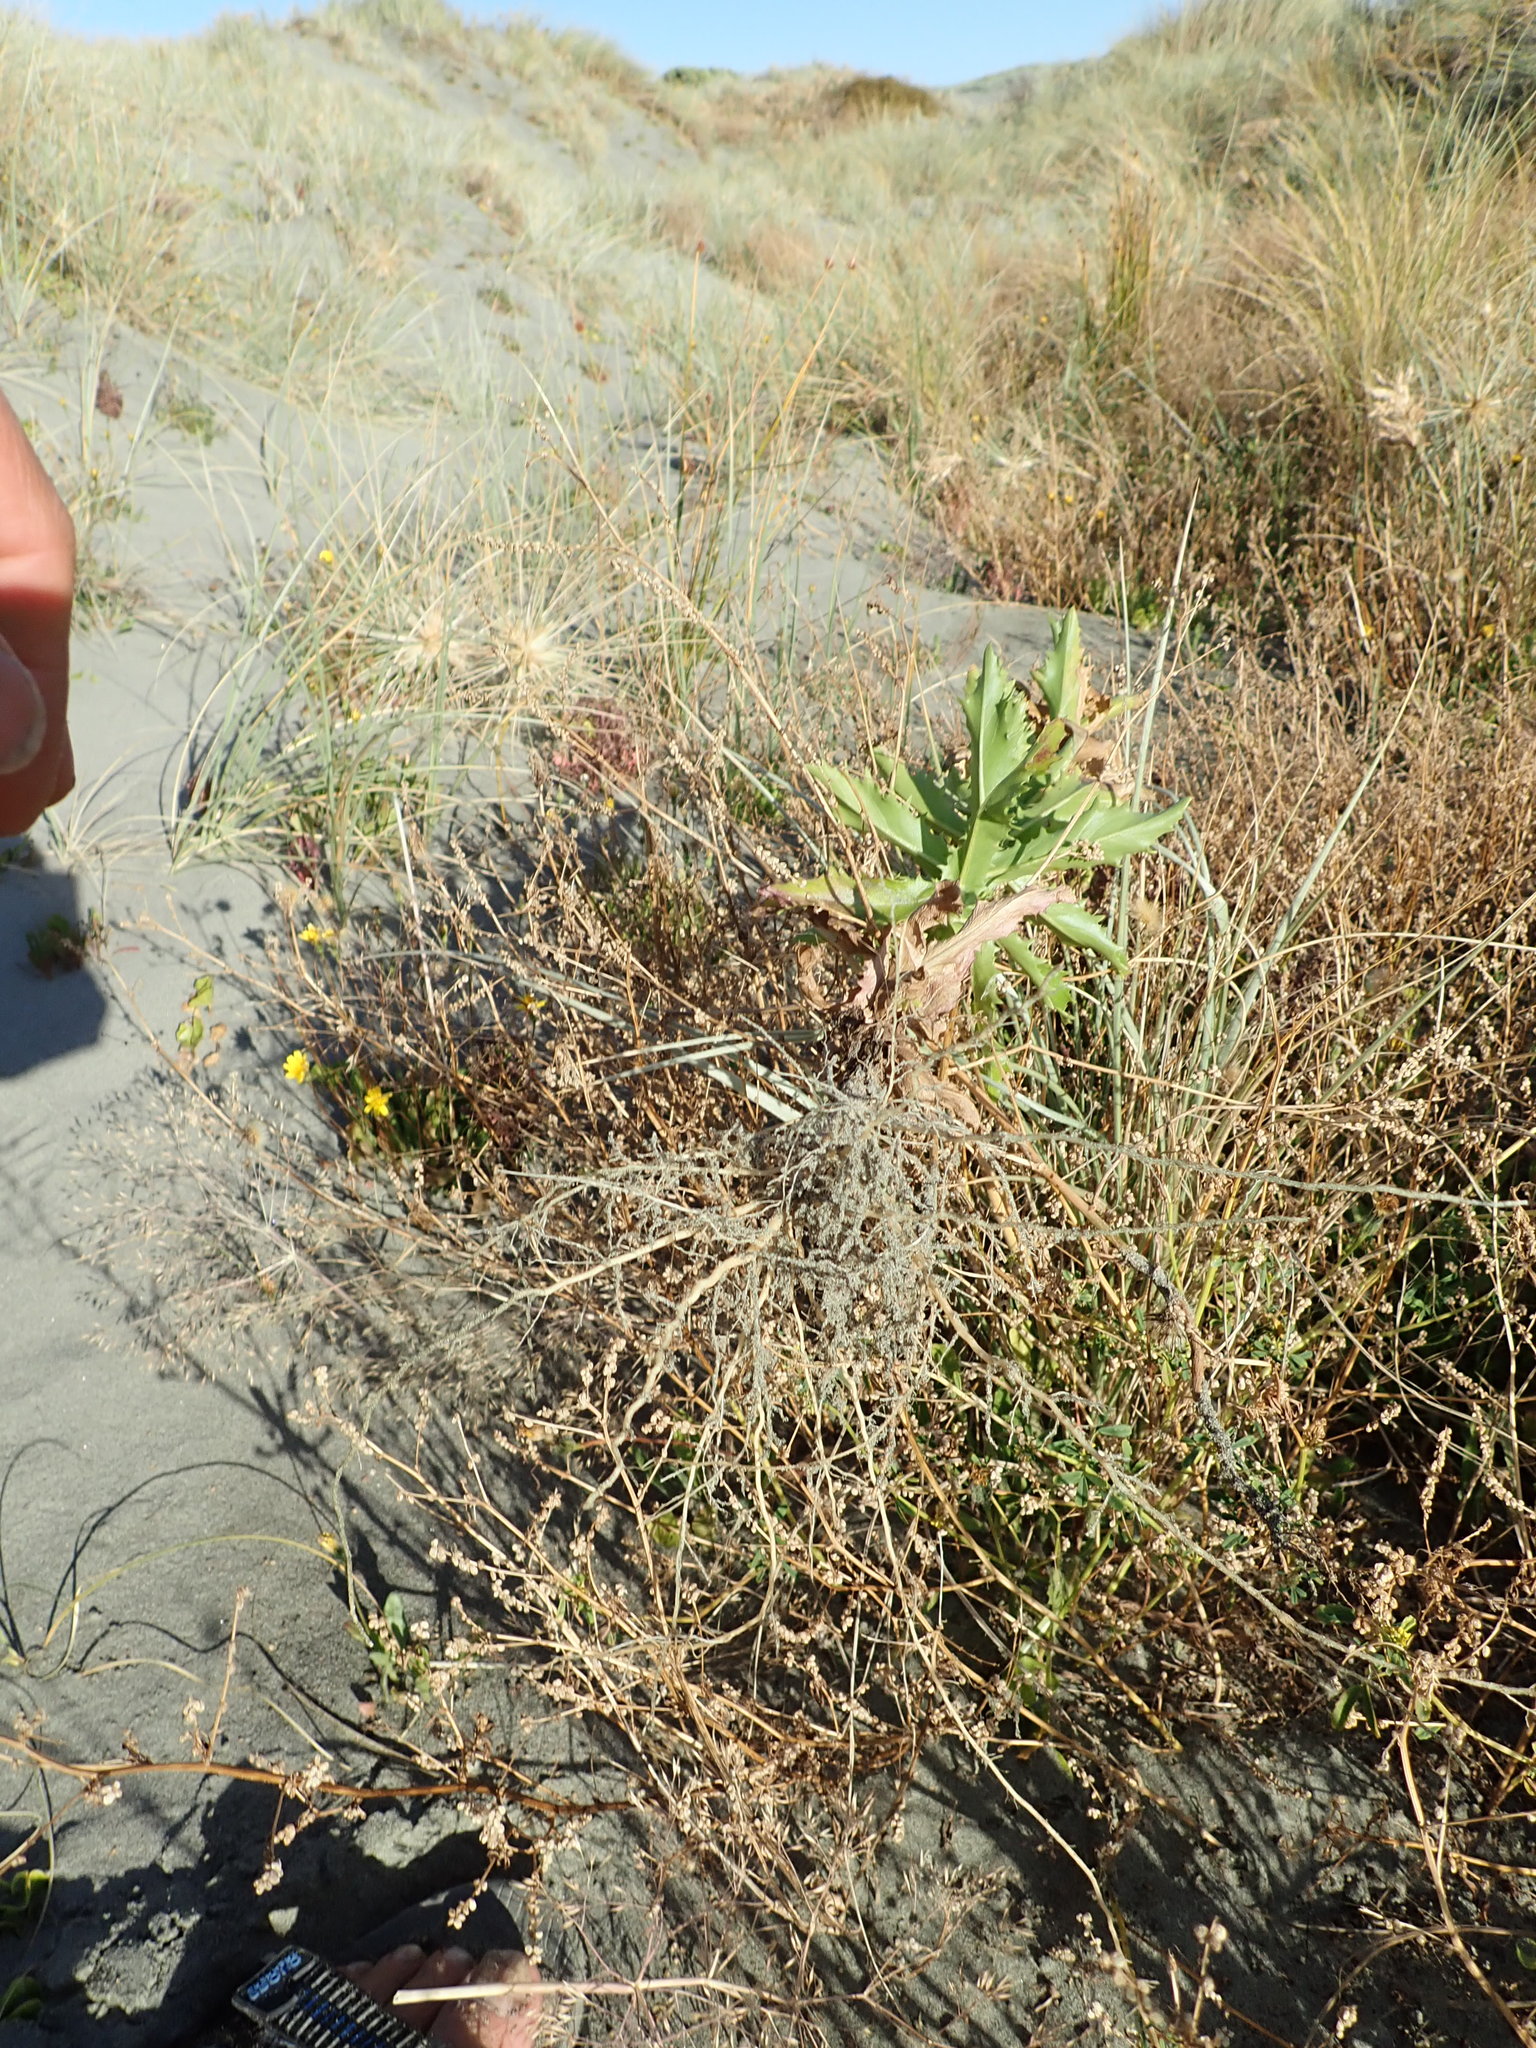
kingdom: Plantae
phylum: Tracheophyta
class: Magnoliopsida
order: Asterales
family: Asteraceae
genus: Senecio
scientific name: Senecio glastifolius
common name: Woad-leaved ragwort
